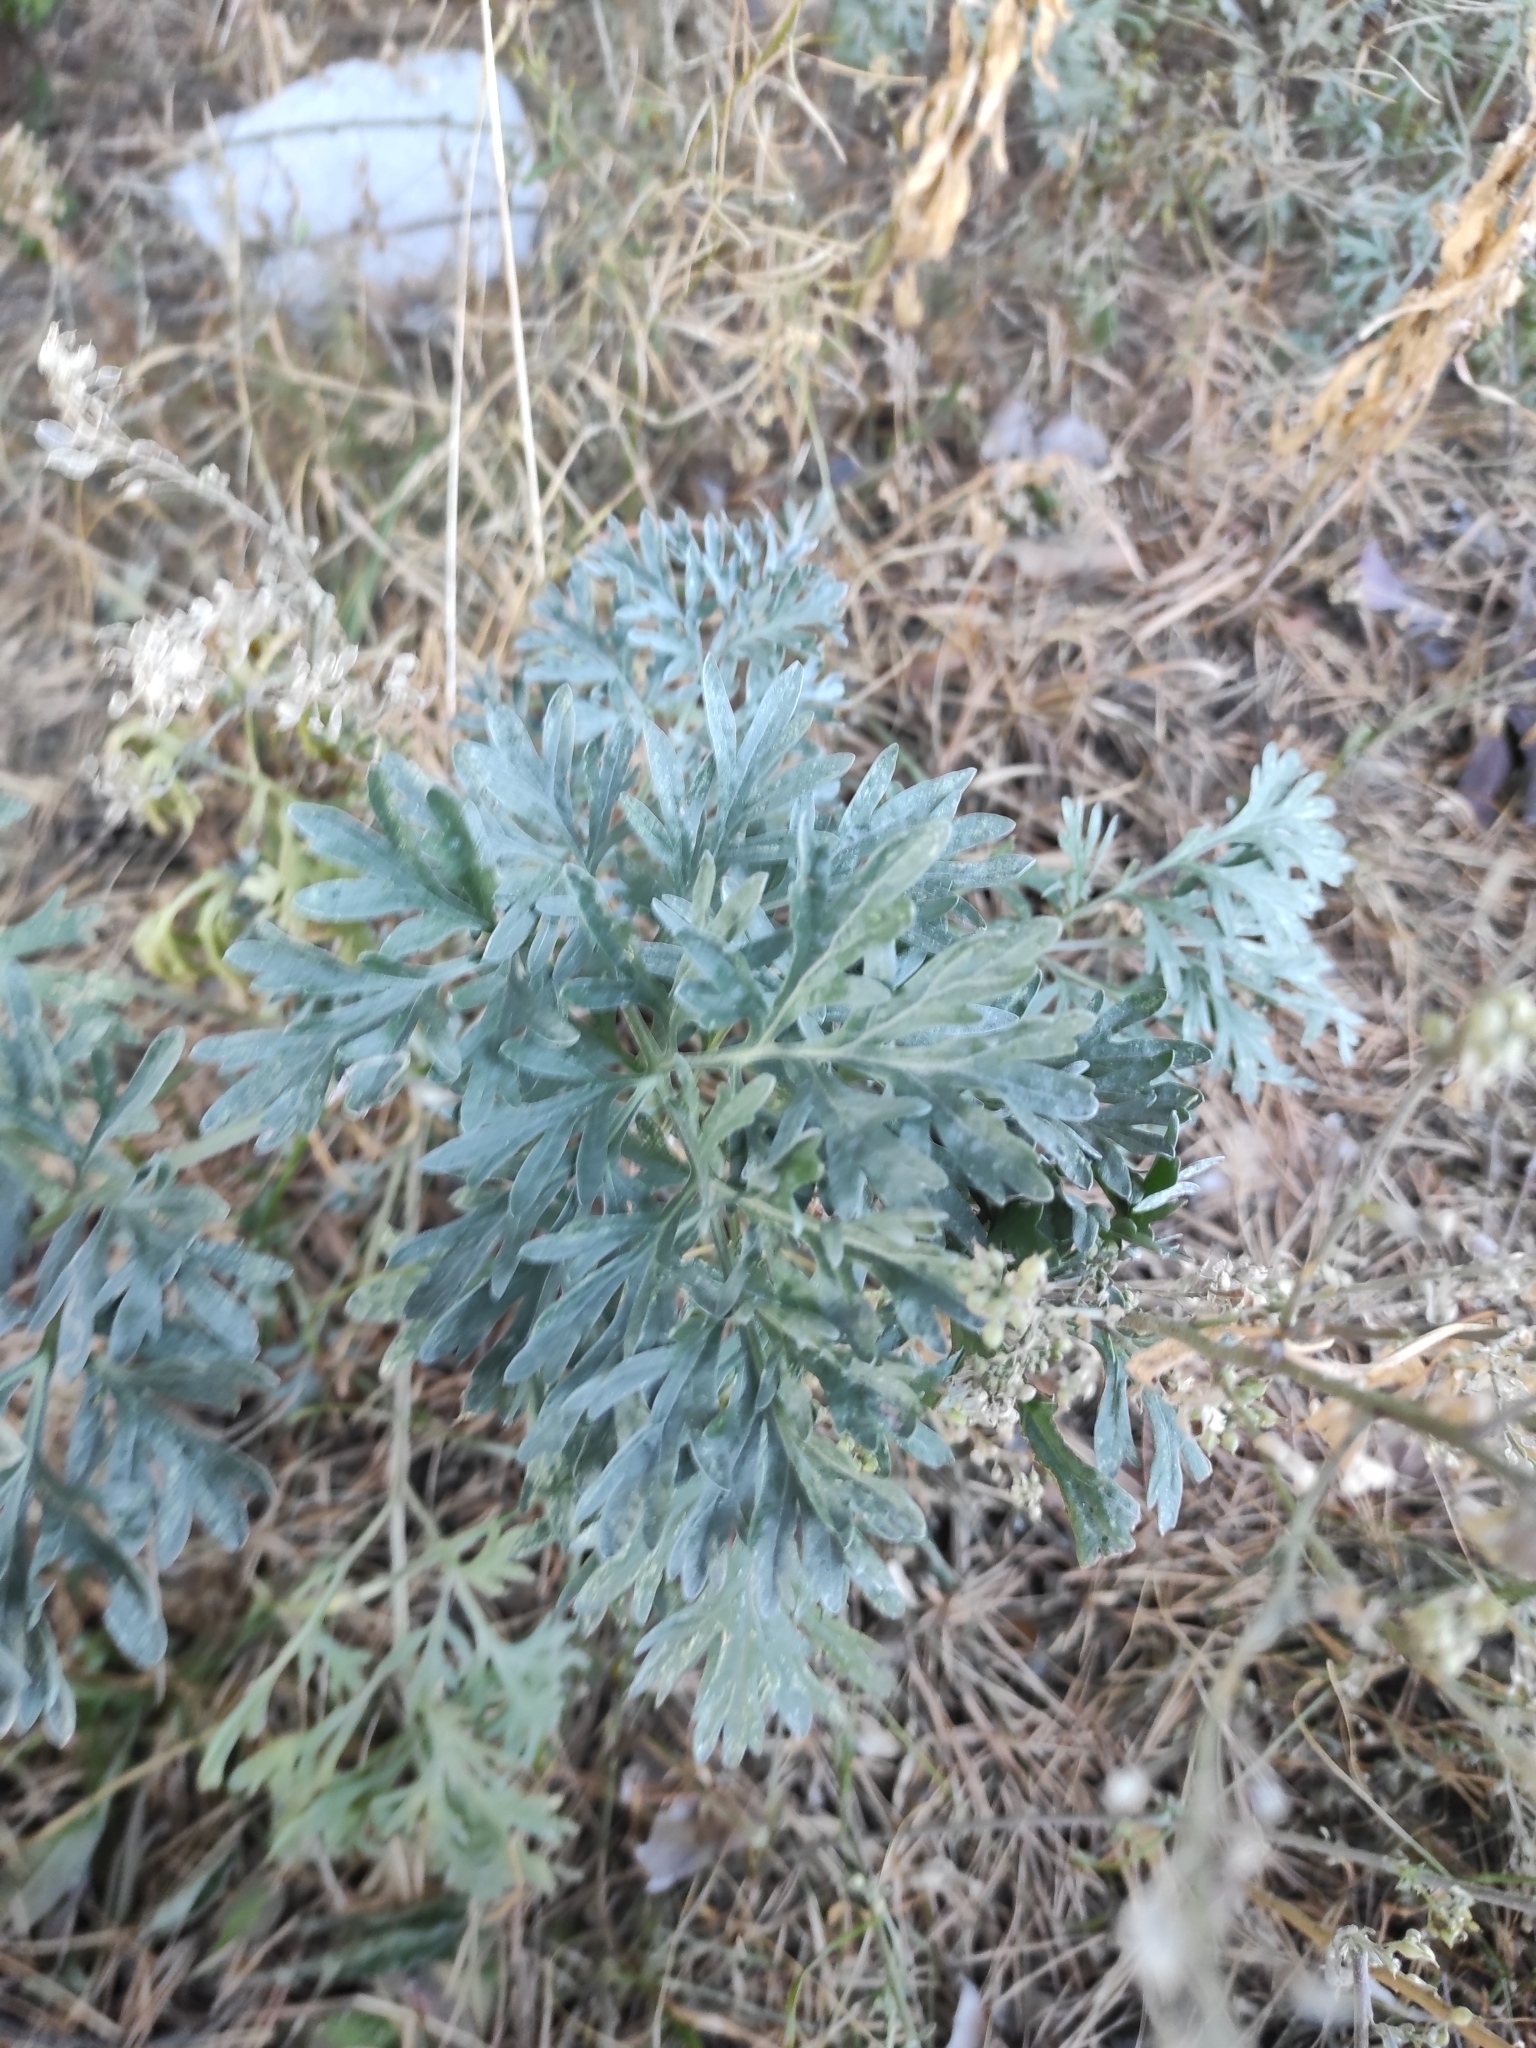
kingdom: Plantae
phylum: Tracheophyta
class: Magnoliopsida
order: Asterales
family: Asteraceae
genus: Artemisia
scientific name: Artemisia absinthium
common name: Wormwood
